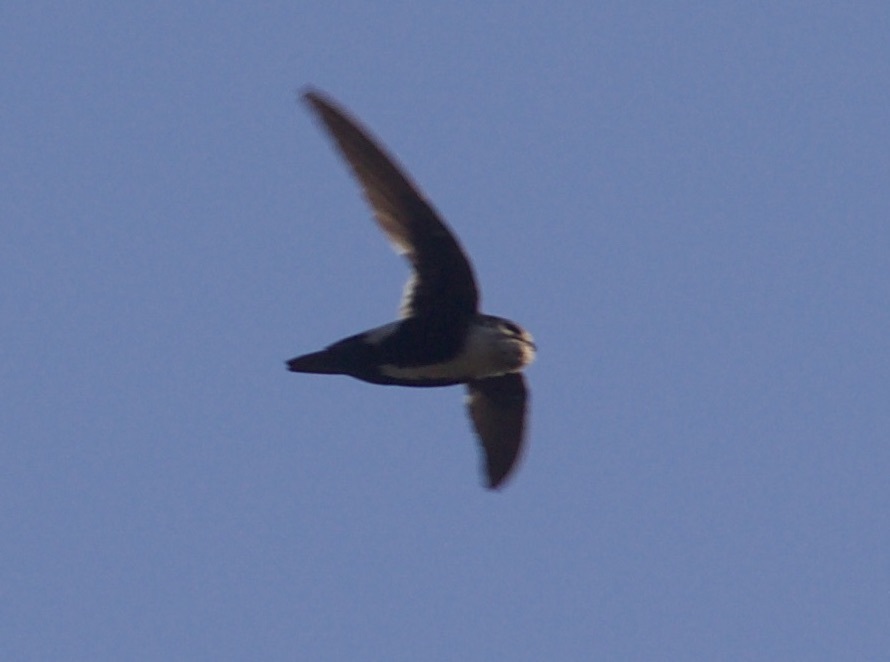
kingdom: Animalia
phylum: Chordata
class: Aves
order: Apodiformes
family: Apodidae
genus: Aeronautes
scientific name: Aeronautes saxatalis
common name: White-throated swift
